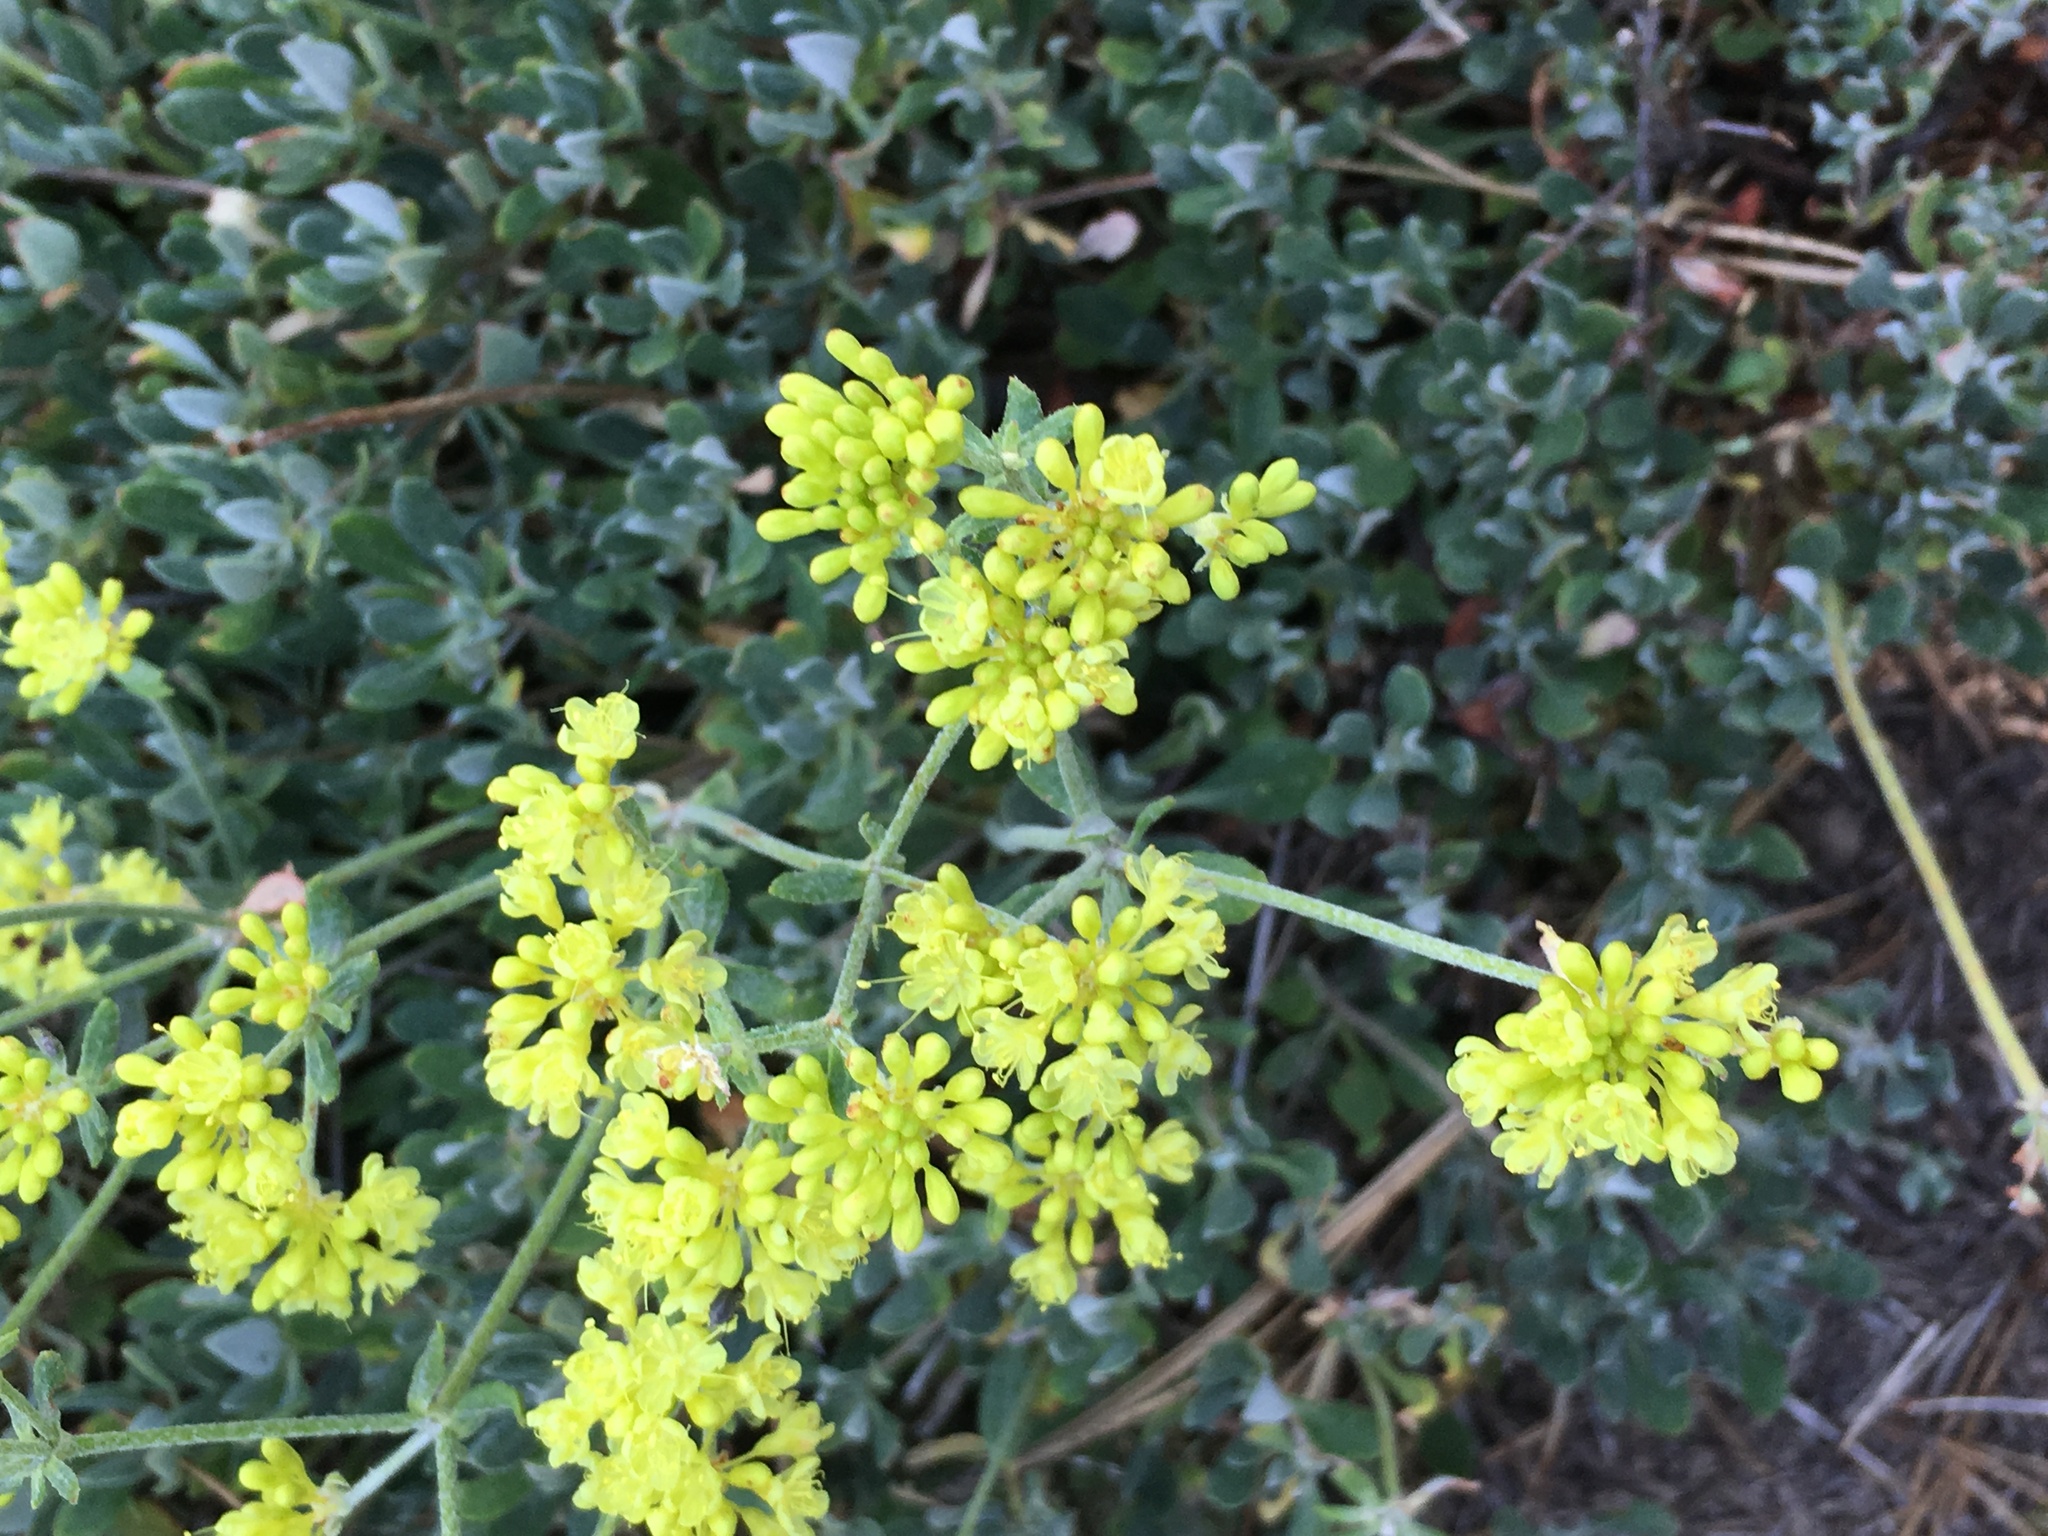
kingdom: Plantae
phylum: Tracheophyta
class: Magnoliopsida
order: Caryophyllales
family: Polygonaceae
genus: Eriogonum
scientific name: Eriogonum umbellatum
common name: Sulfur-buckwheat
